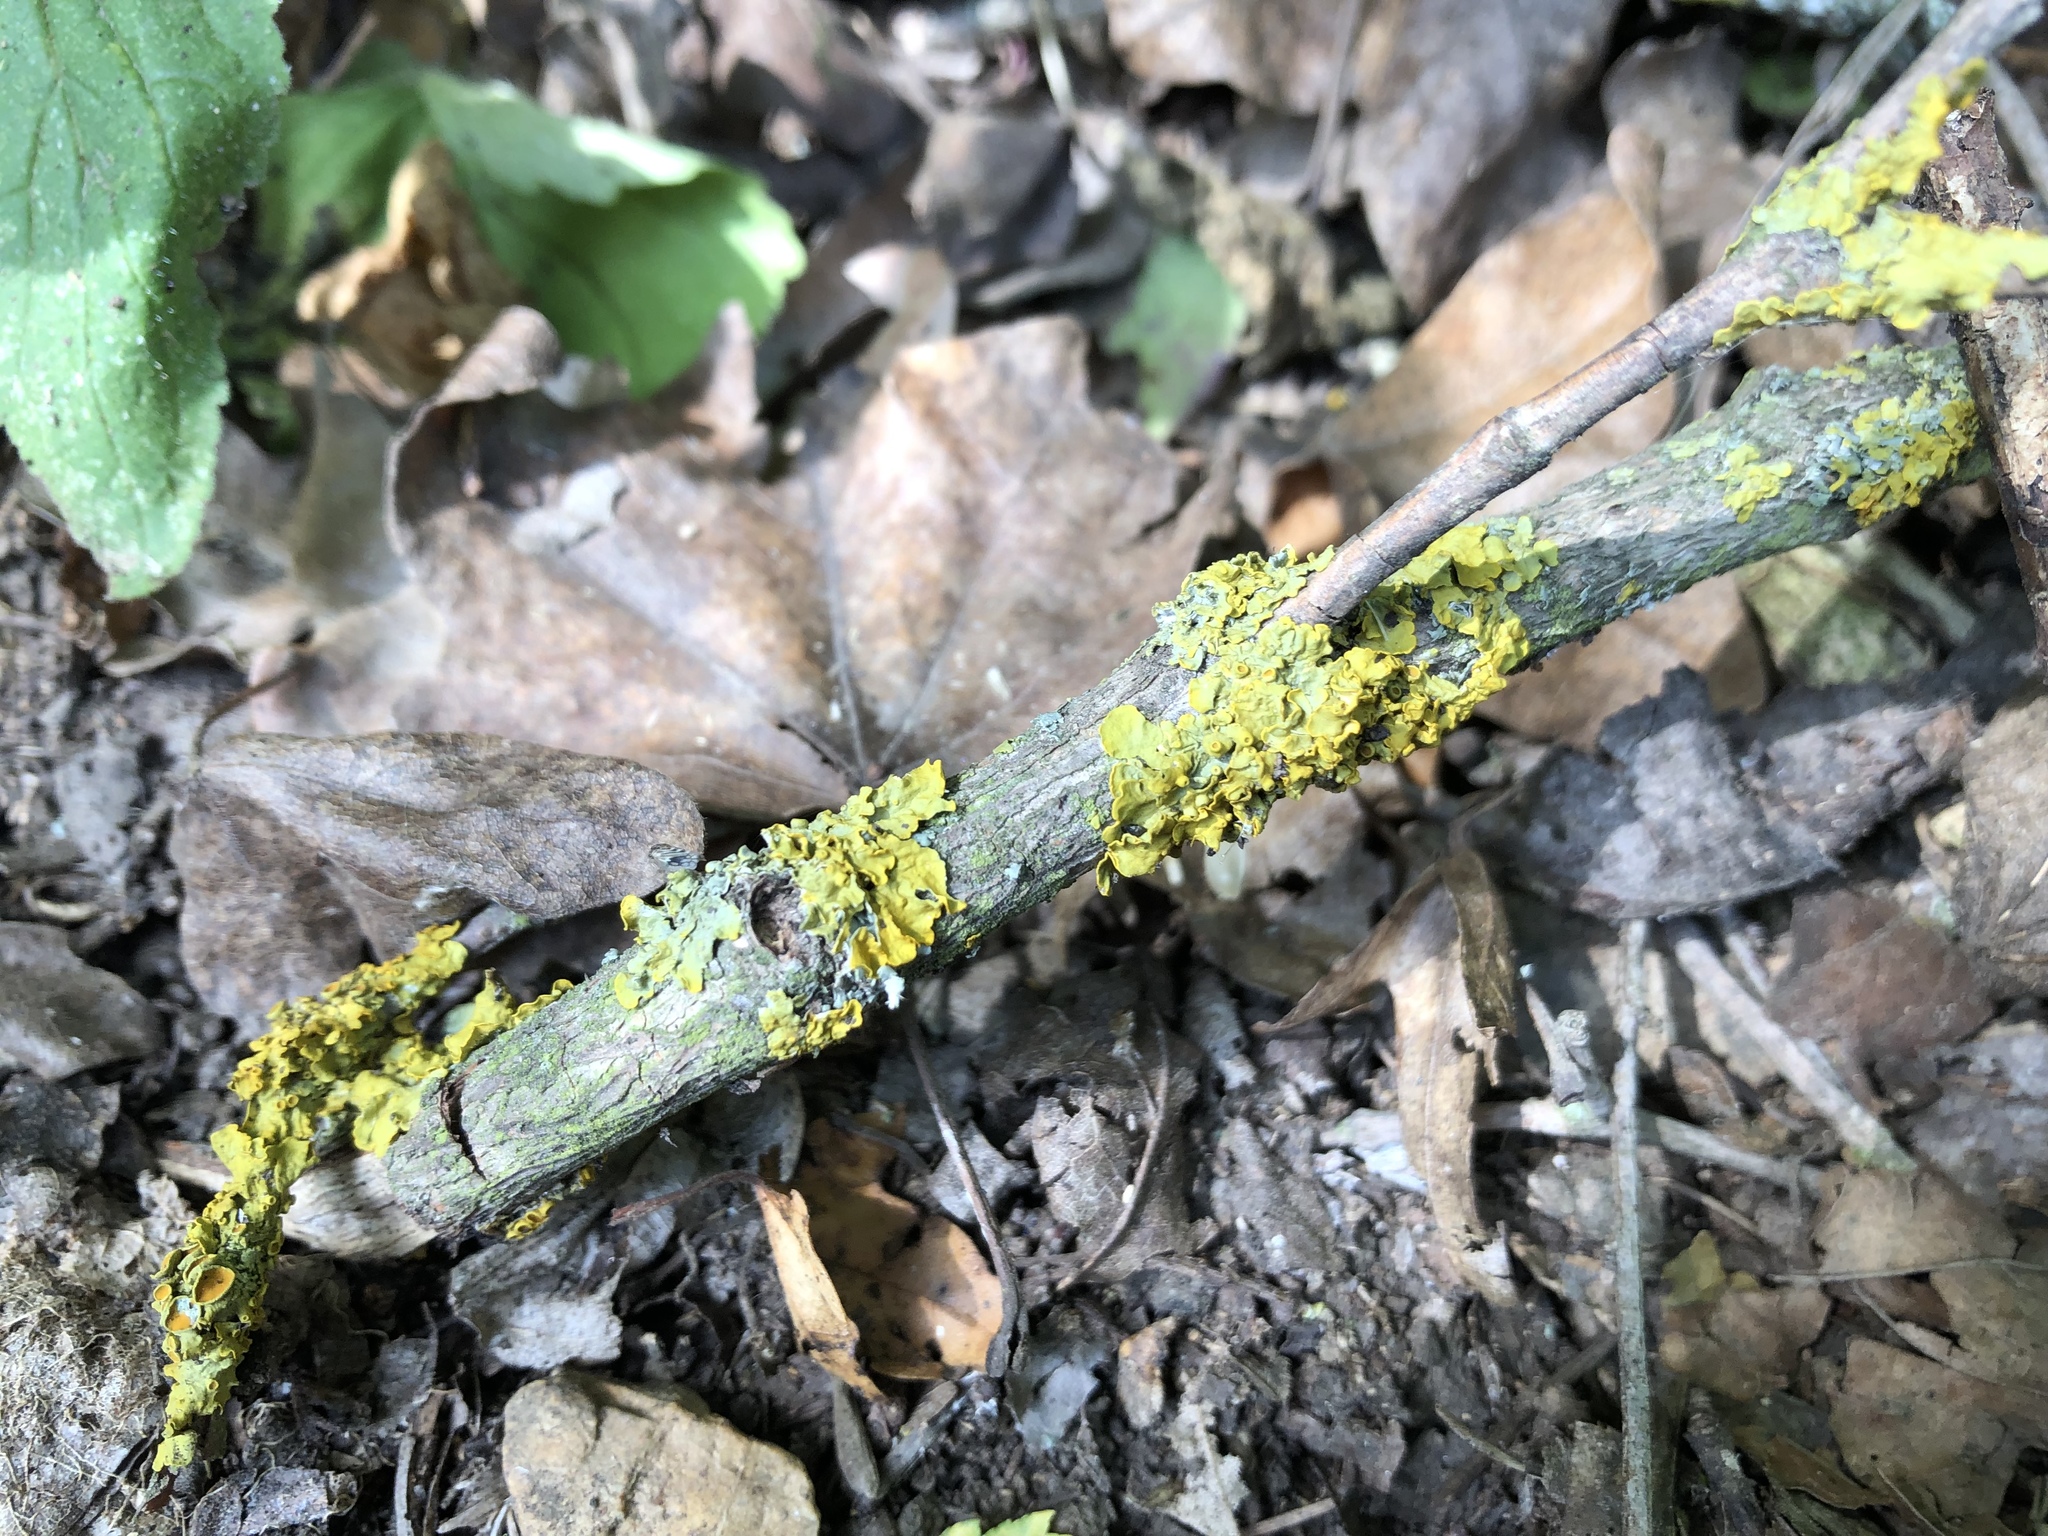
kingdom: Fungi
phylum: Ascomycota
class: Lecanoromycetes
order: Teloschistales
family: Teloschistaceae
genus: Xanthoria
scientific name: Xanthoria parietina
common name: Common orange lichen
